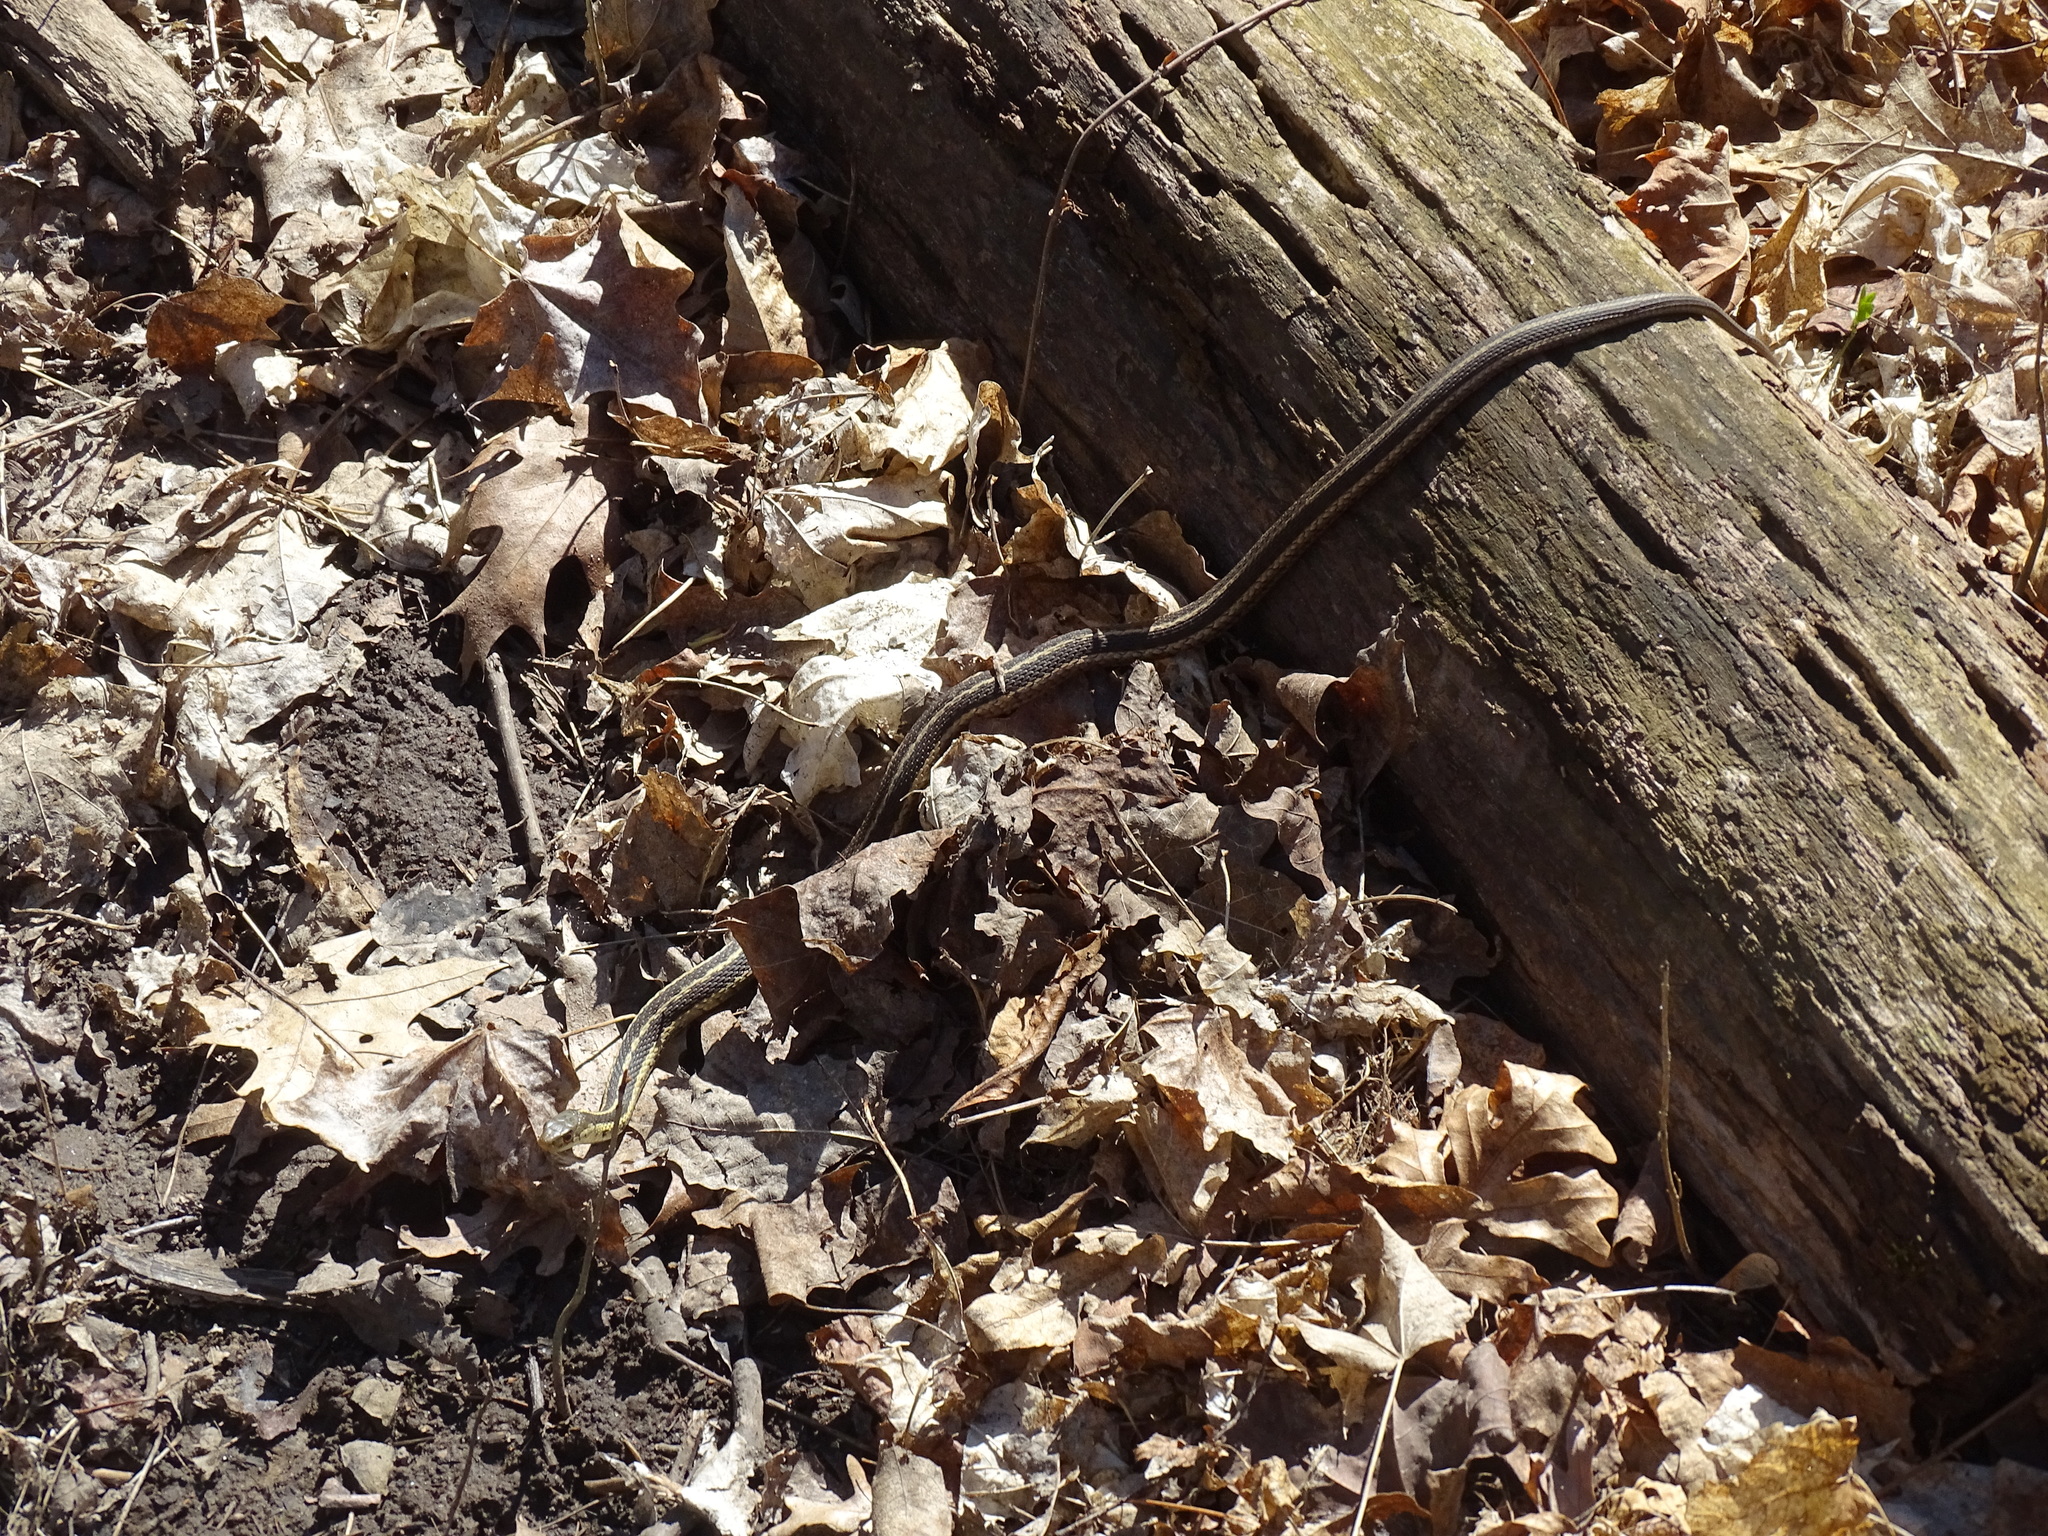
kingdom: Animalia
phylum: Chordata
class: Squamata
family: Colubridae
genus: Thamnophis
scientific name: Thamnophis sirtalis
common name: Common garter snake
